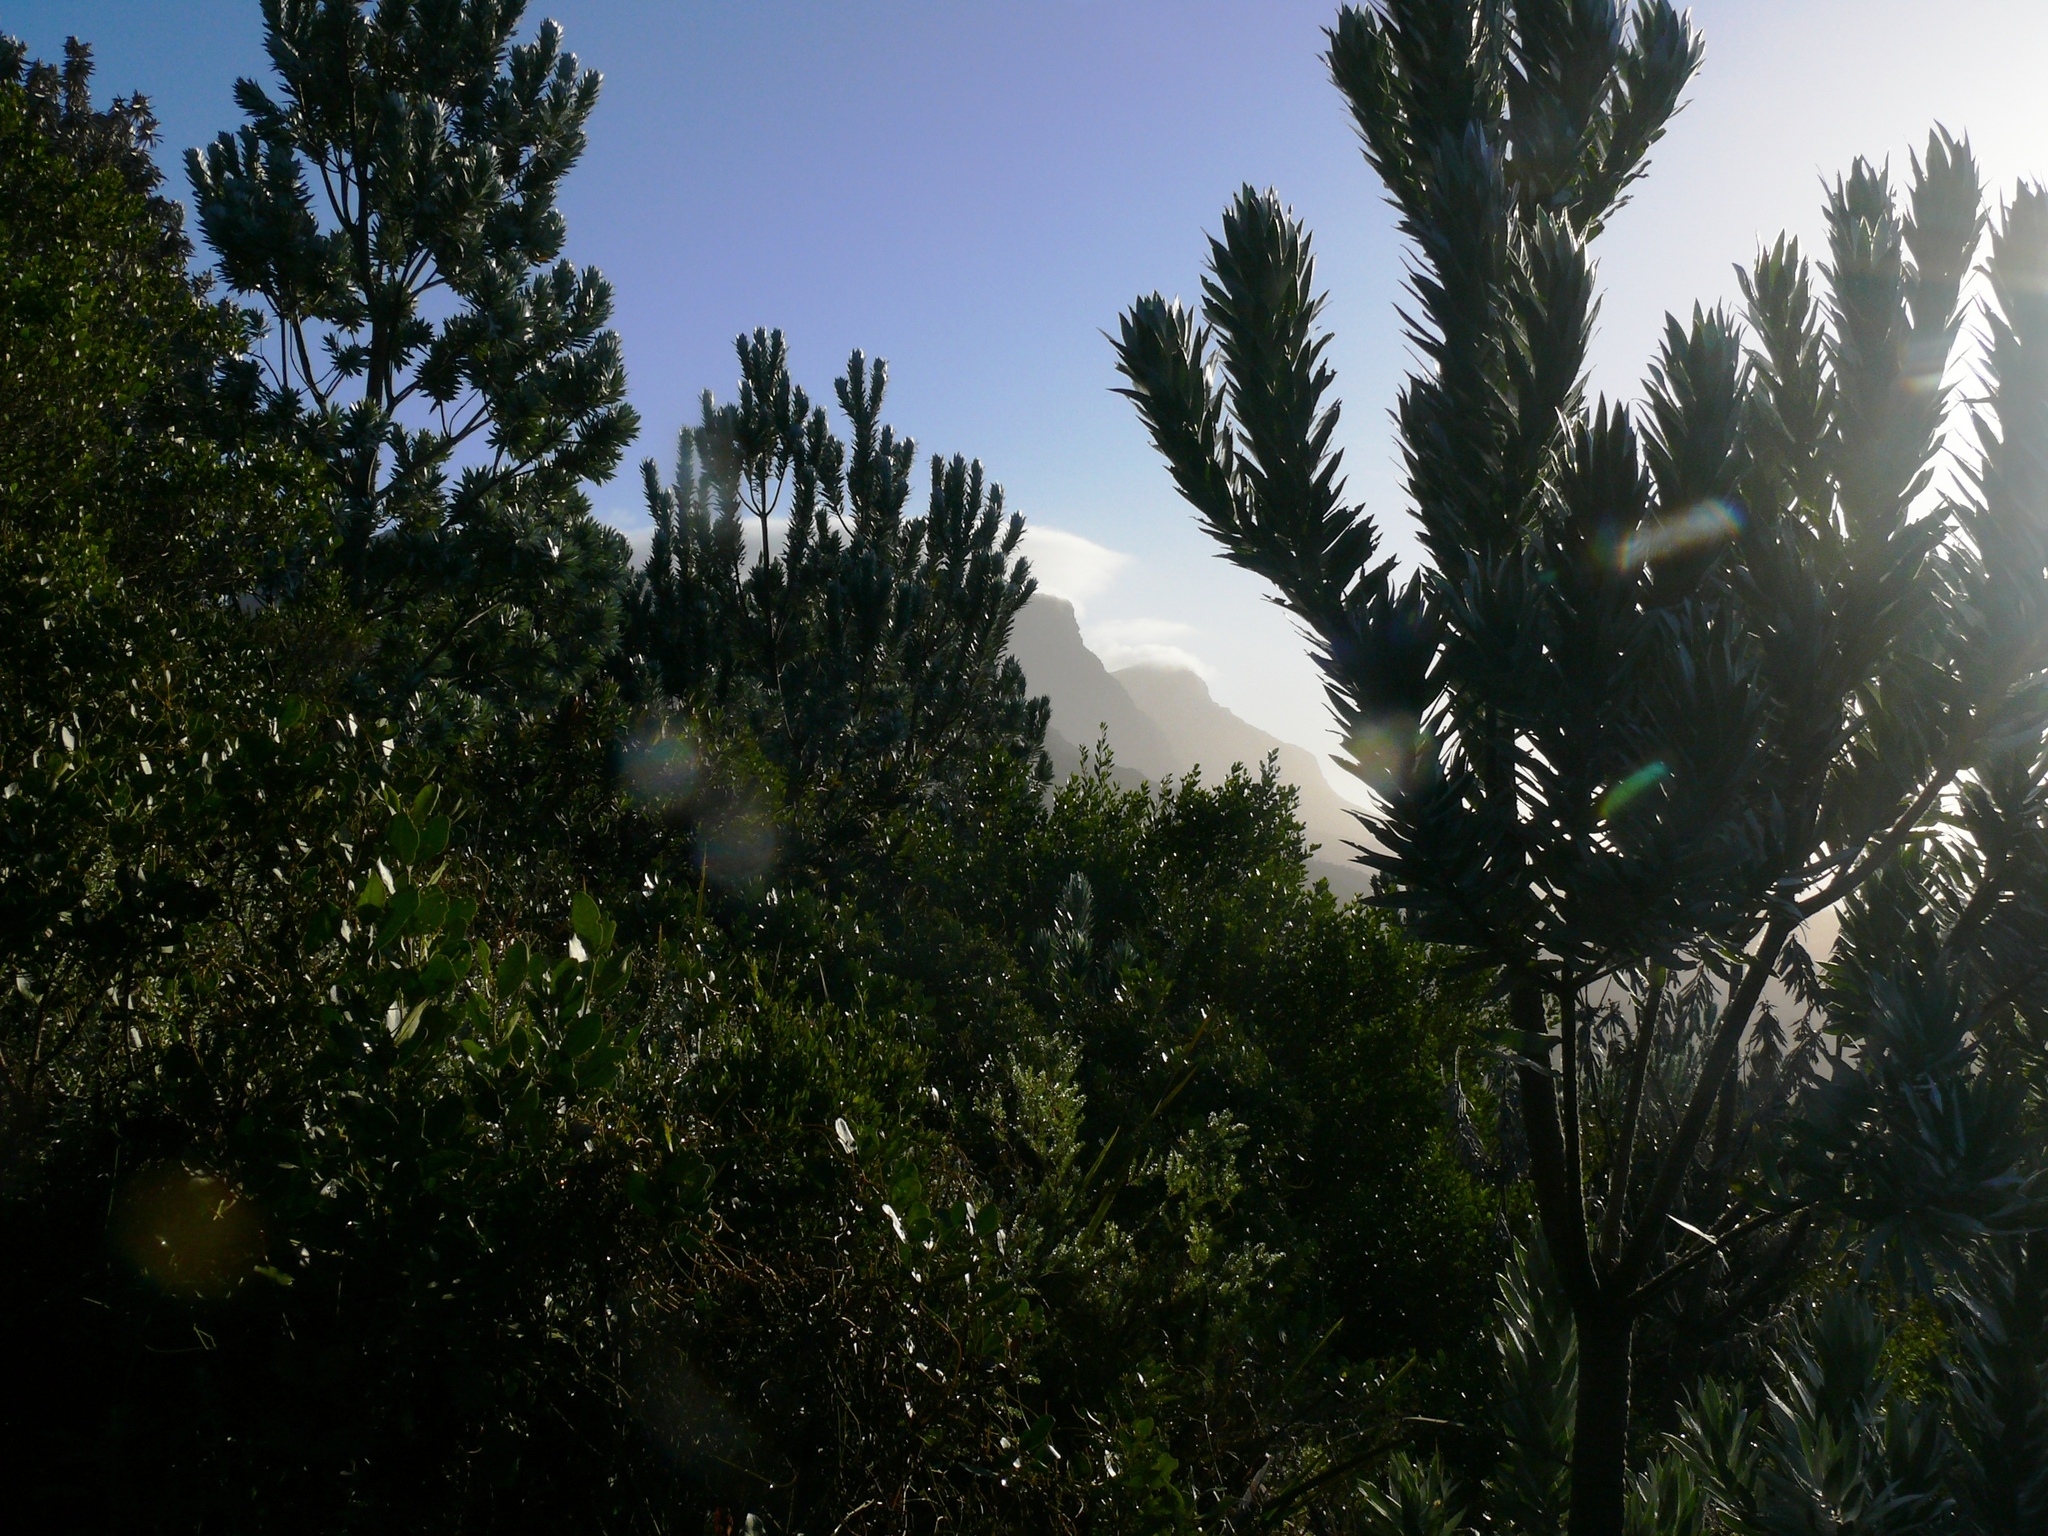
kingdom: Plantae
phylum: Tracheophyta
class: Magnoliopsida
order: Proteales
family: Proteaceae
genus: Leucadendron
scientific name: Leucadendron argenteum
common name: Cape silver tree
